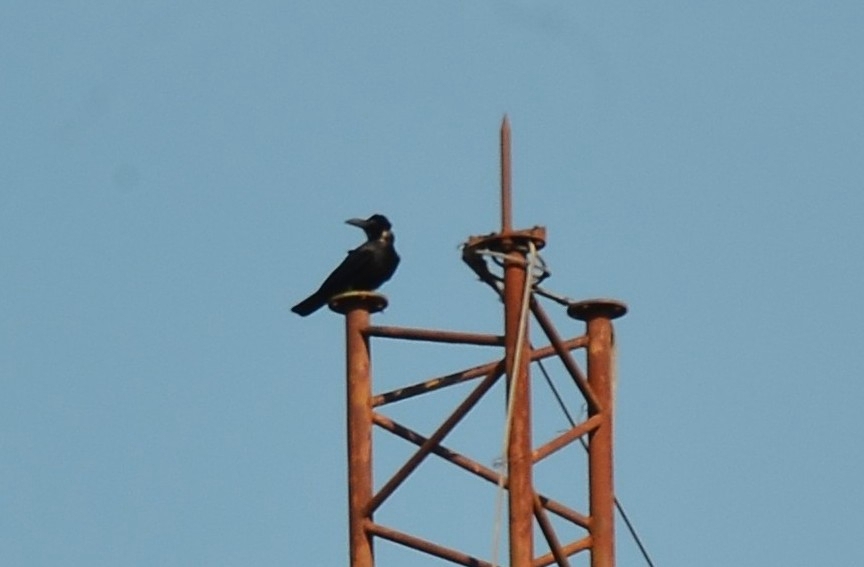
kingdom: Animalia
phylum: Chordata
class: Aves
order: Passeriformes
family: Corvidae
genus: Corvus
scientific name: Corvus macrorhynchos
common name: Large-billed crow
